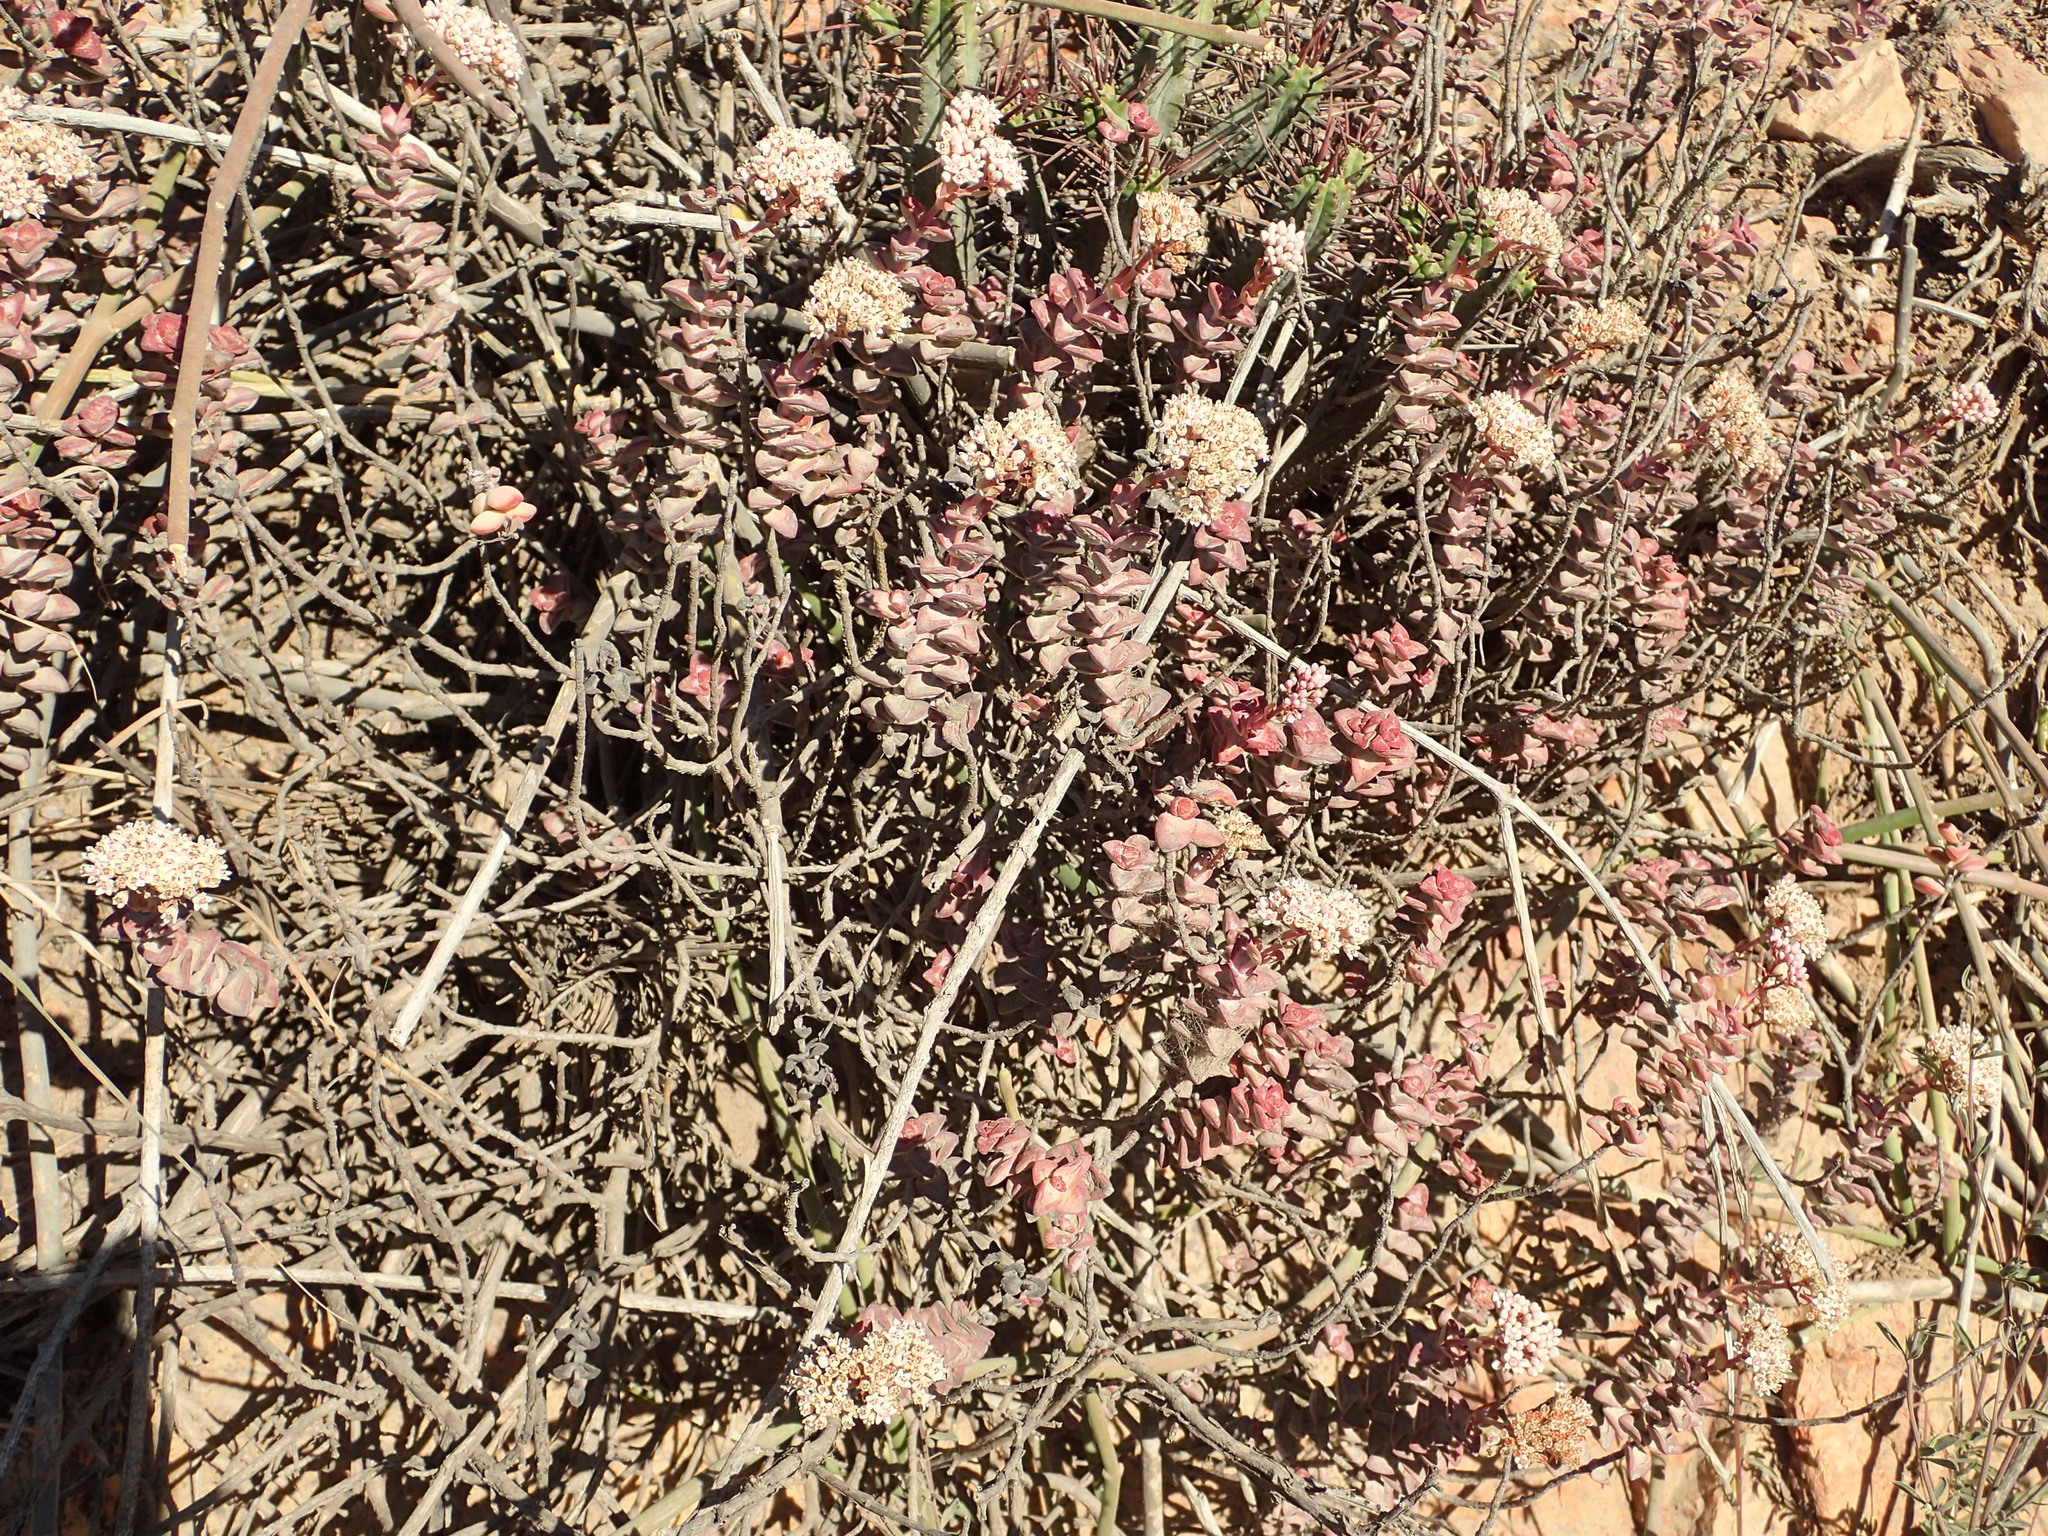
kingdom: Plantae
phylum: Tracheophyta
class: Magnoliopsida
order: Saxifragales
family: Crassulaceae
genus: Crassula
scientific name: Crassula rupestris
